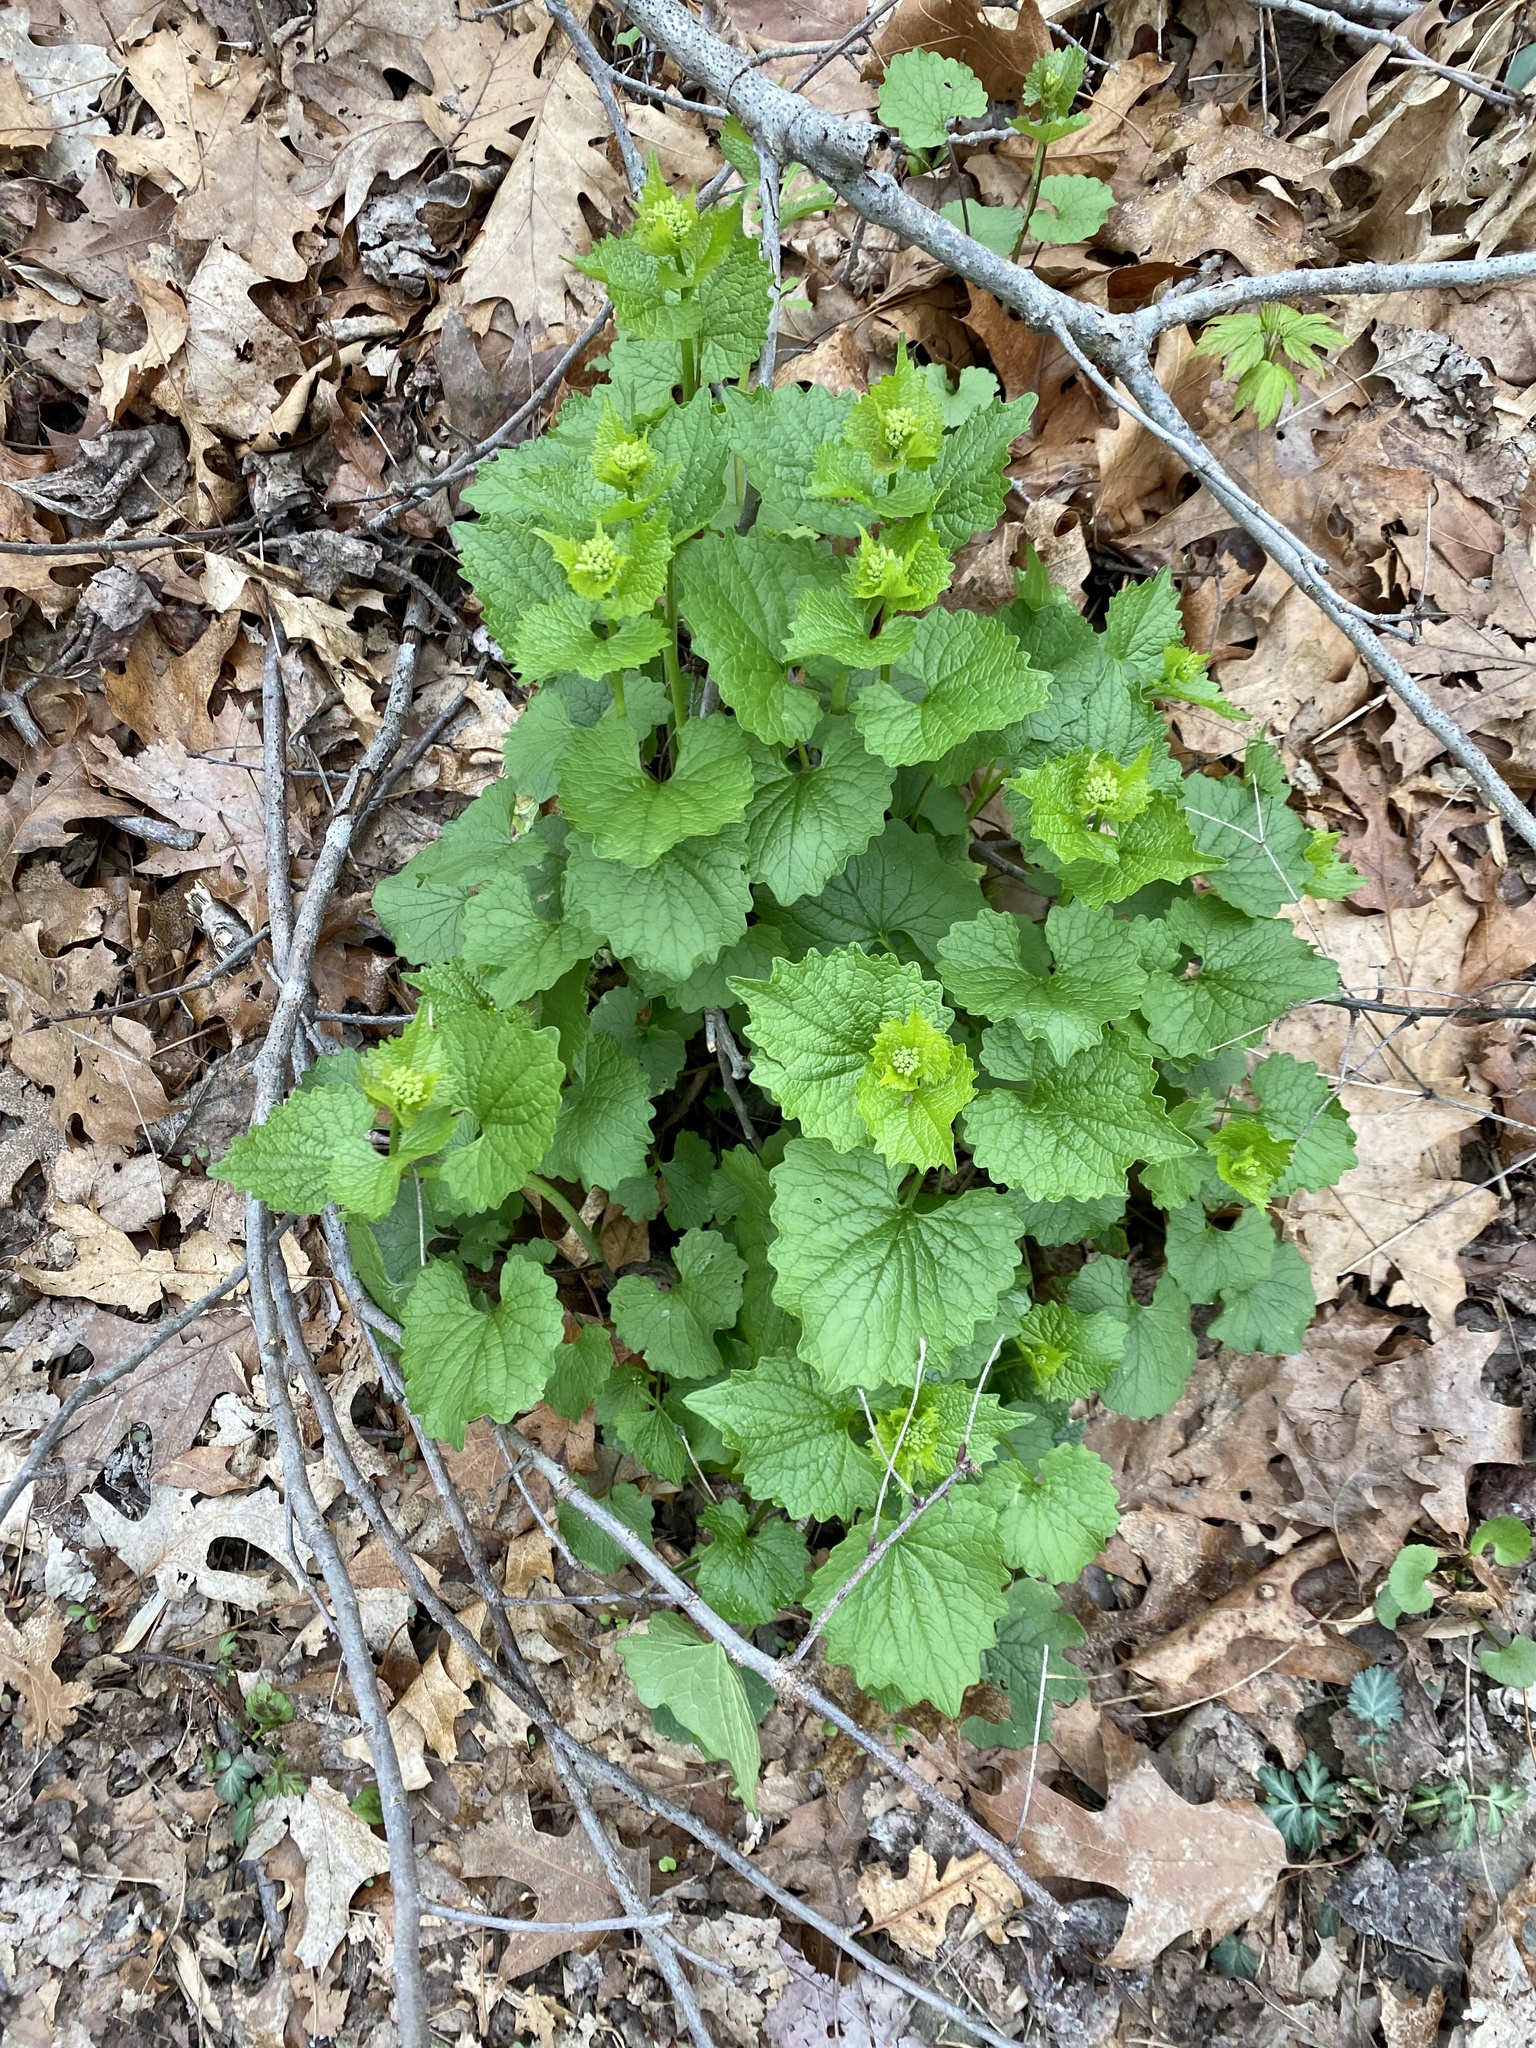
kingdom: Plantae
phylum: Tracheophyta
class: Magnoliopsida
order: Brassicales
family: Brassicaceae
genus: Alliaria
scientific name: Alliaria petiolata
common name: Garlic mustard
